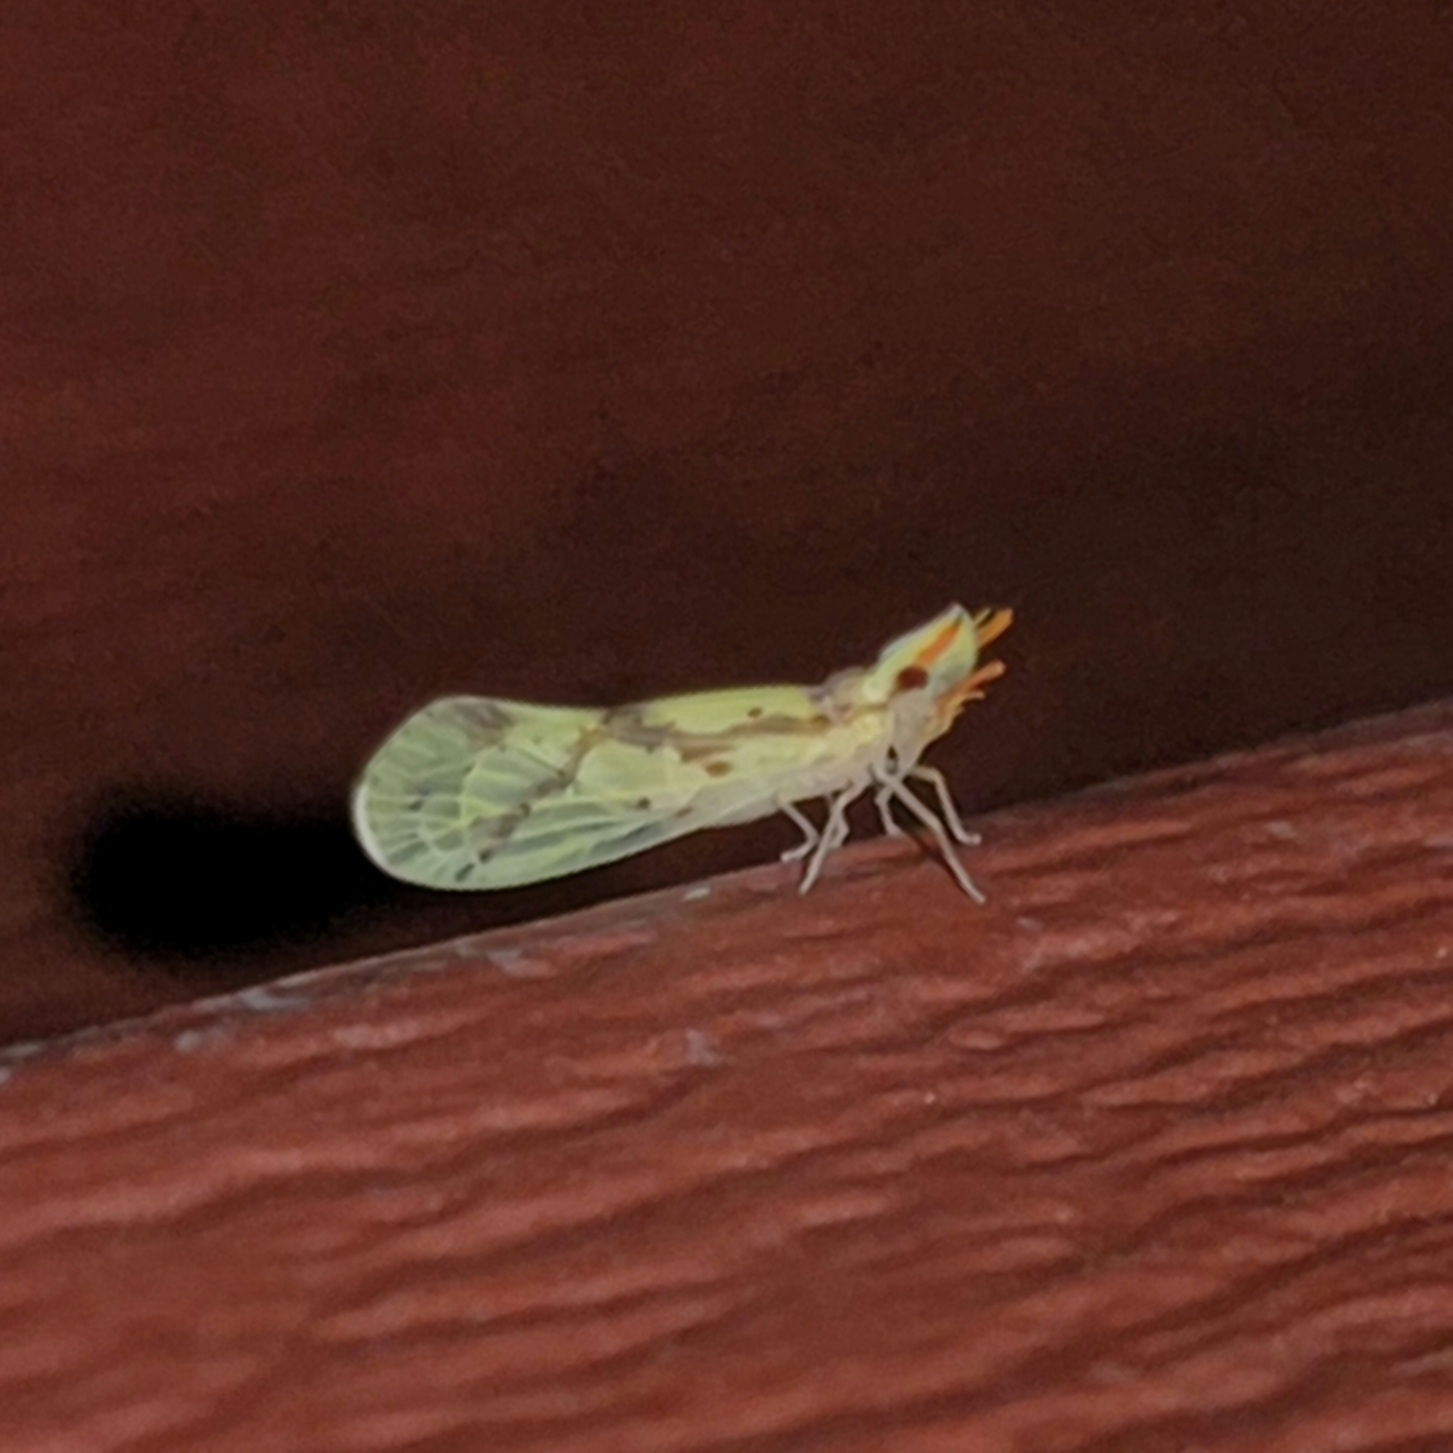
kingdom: Animalia
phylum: Arthropoda
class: Insecta
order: Hemiptera
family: Derbidae
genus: Otiocerus
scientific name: Otiocerus wolfii
